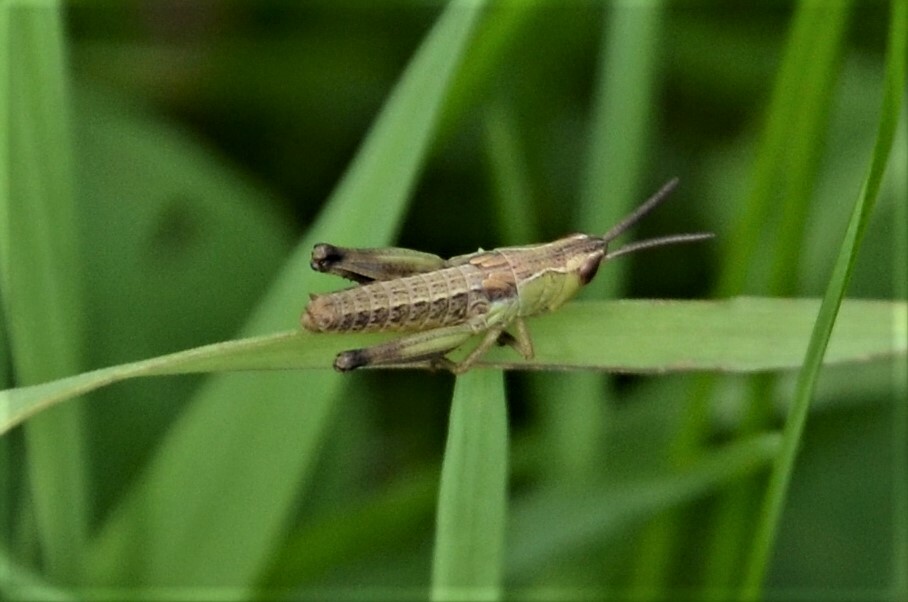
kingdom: Animalia
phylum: Arthropoda
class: Insecta
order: Orthoptera
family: Acrididae
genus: Pseudochorthippus
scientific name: Pseudochorthippus parallelus
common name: Meadow grasshopper
